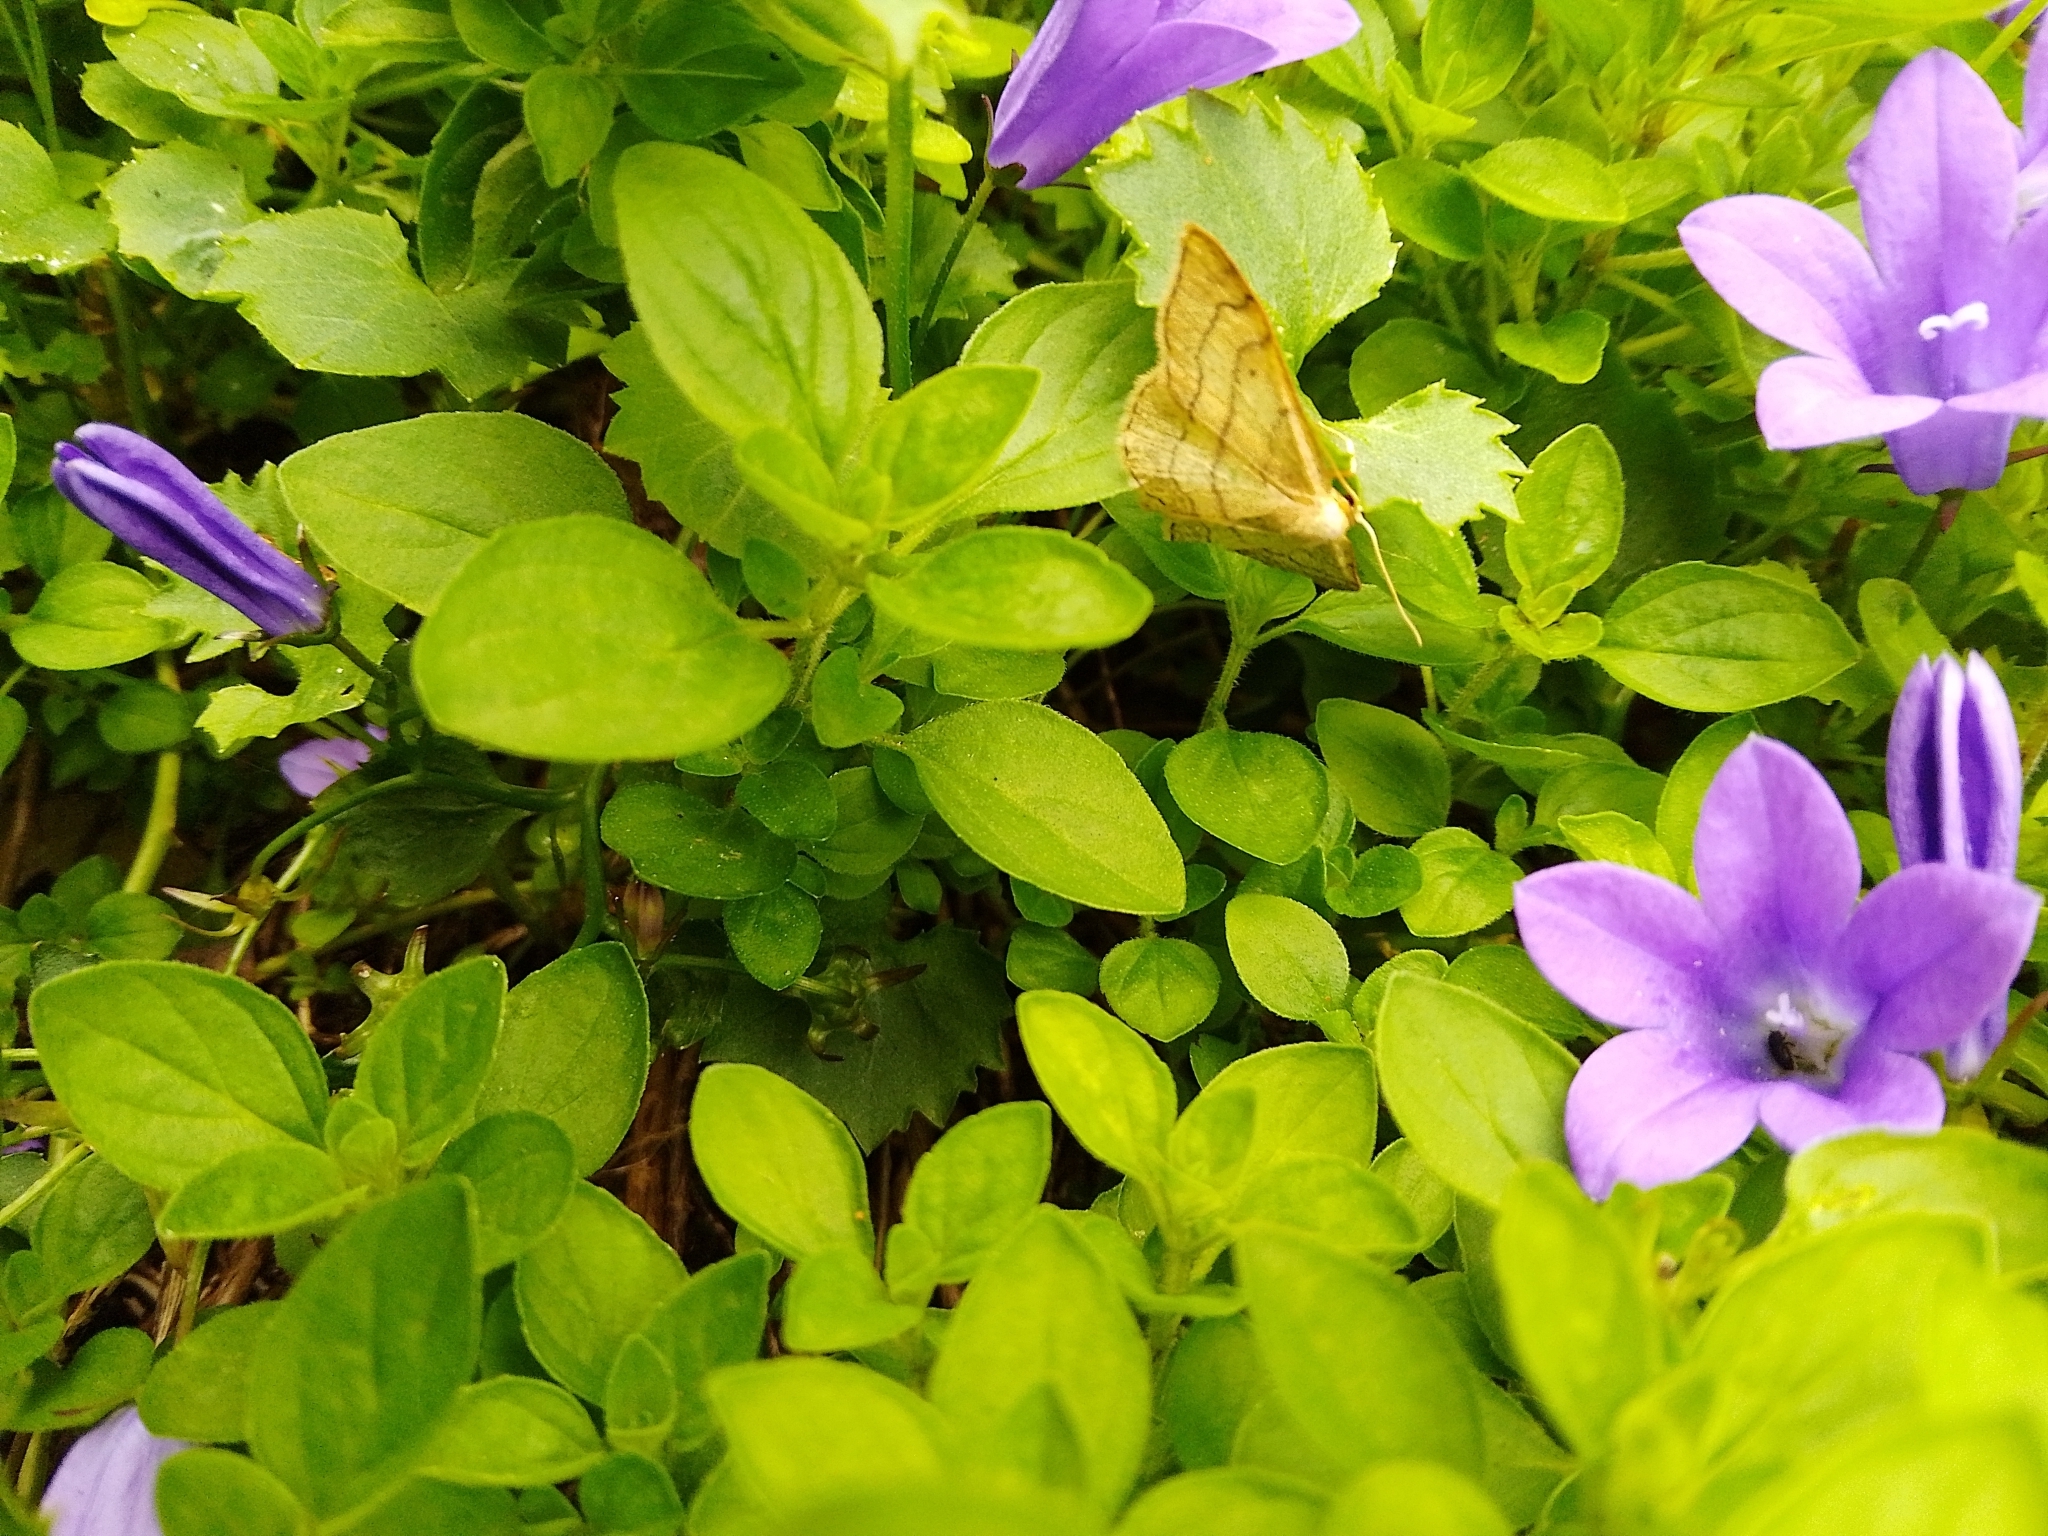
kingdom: Animalia
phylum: Arthropoda
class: Insecta
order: Lepidoptera
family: Geometridae
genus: Idaea
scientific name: Idaea aversata
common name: Riband wave
